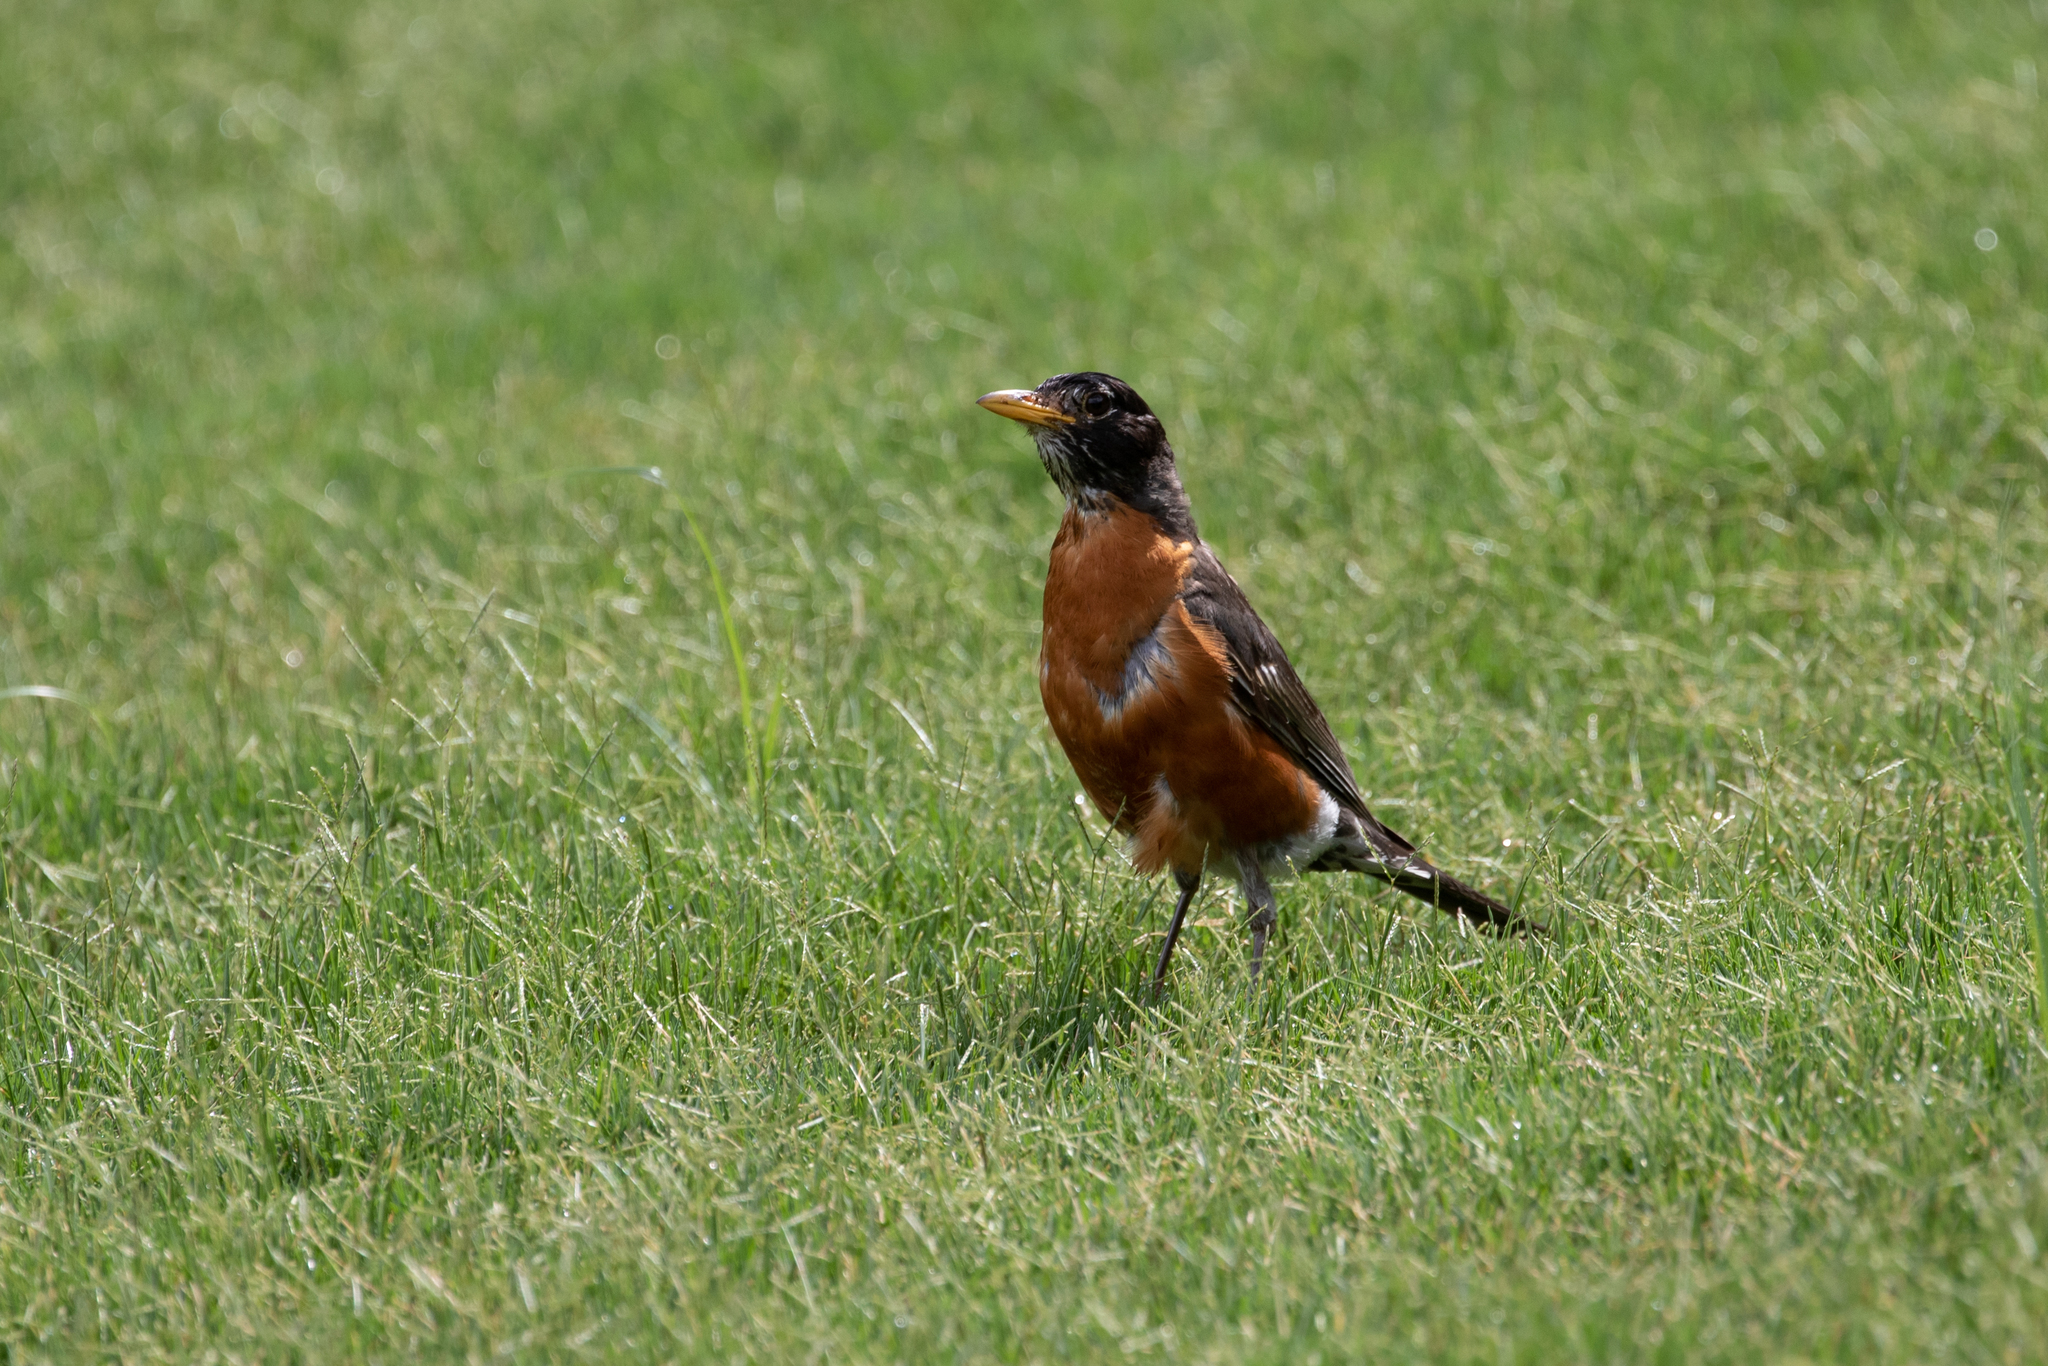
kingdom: Animalia
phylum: Chordata
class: Aves
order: Passeriformes
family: Turdidae
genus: Turdus
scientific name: Turdus migratorius
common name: American robin
